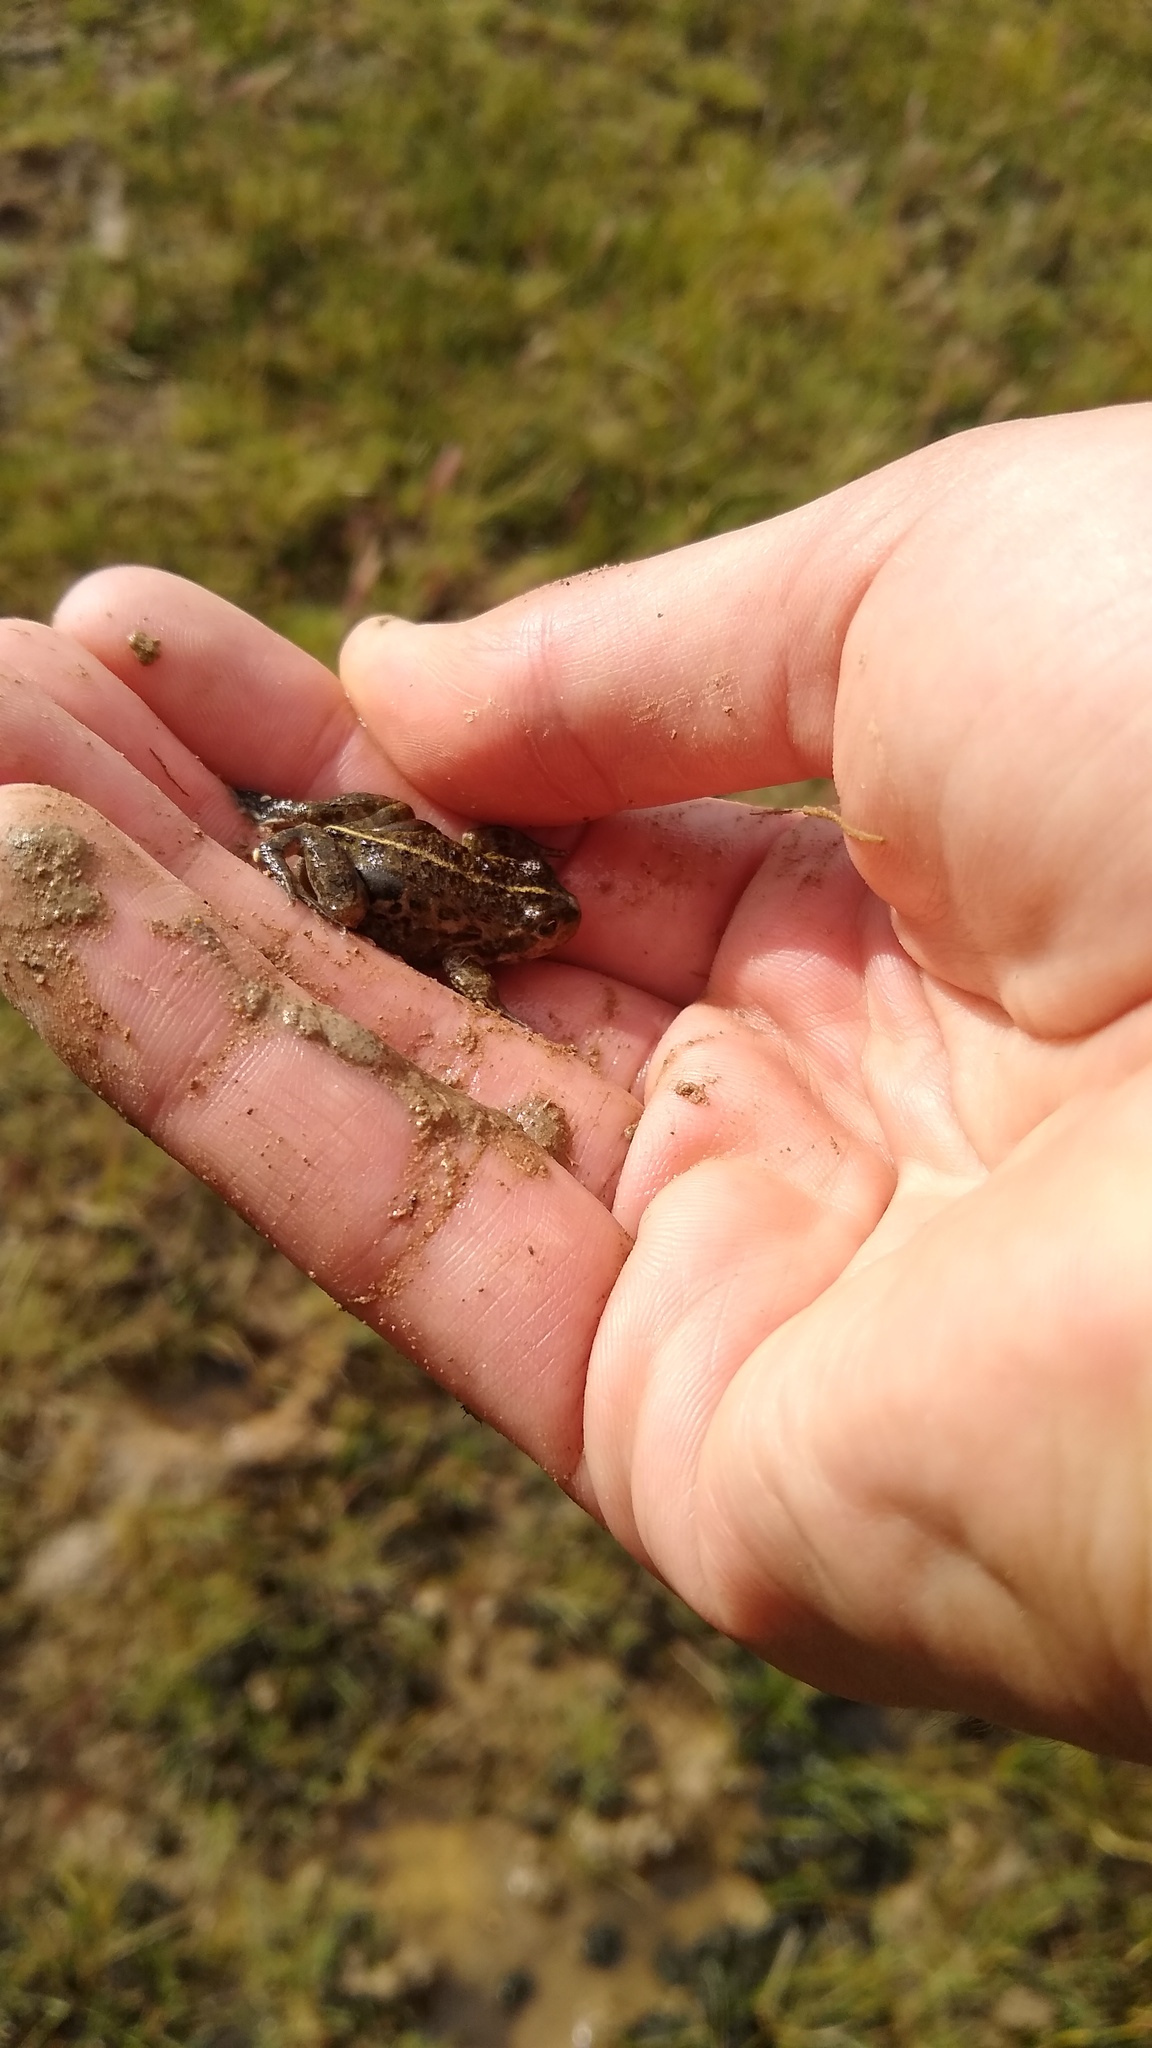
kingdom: Animalia
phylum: Chordata
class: Amphibia
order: Anura
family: Leptodactylidae
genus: Pleurodema
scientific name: Pleurodema bufoninum
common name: Large four-eyed frog
